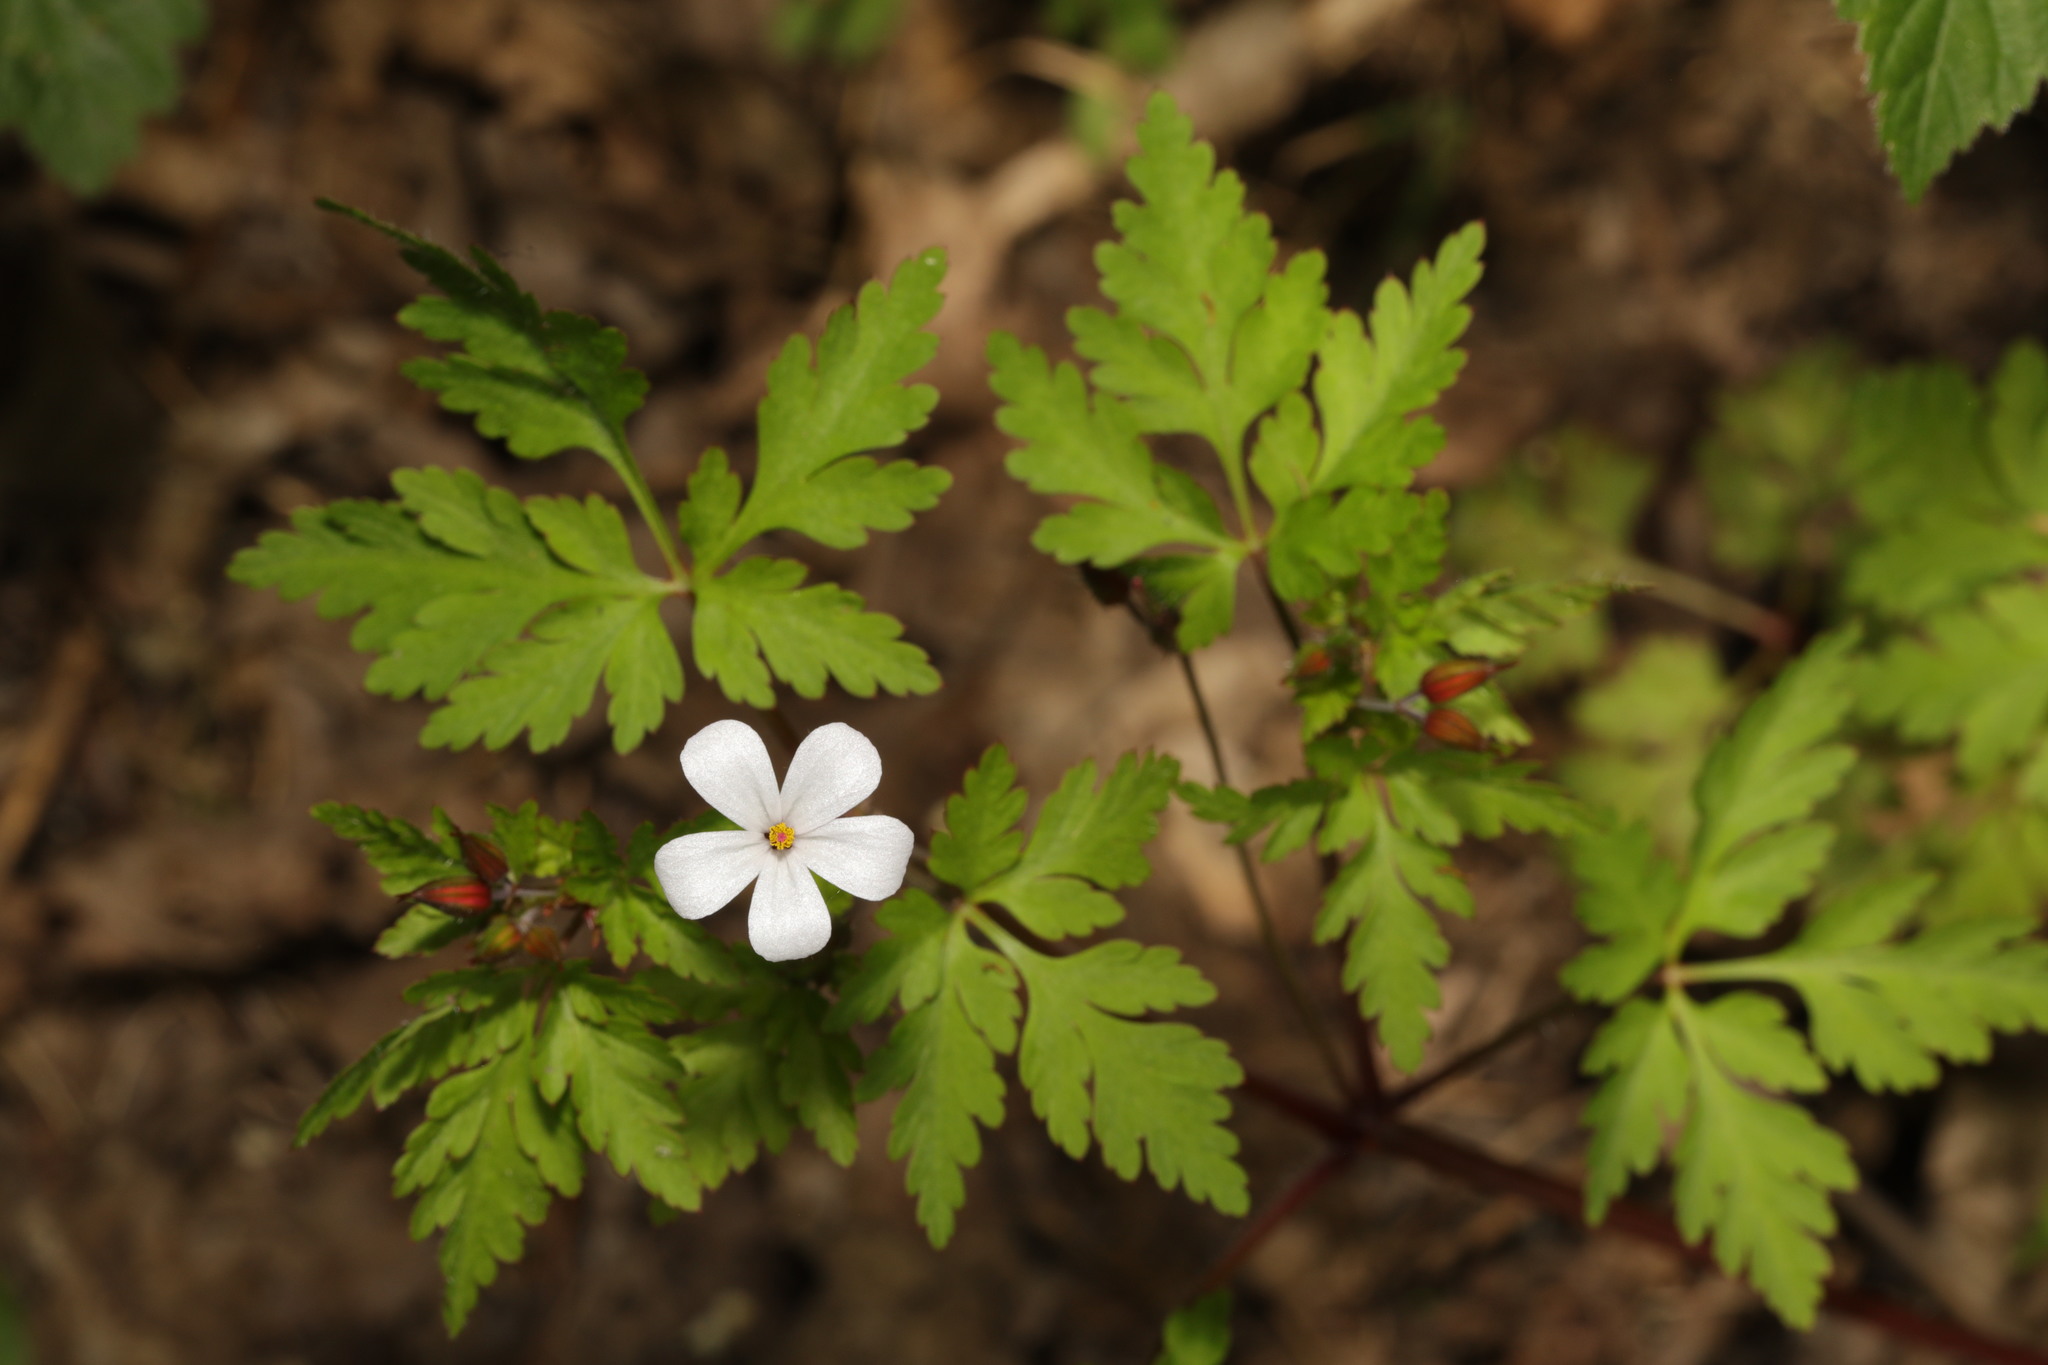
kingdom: Plantae
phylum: Tracheophyta
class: Magnoliopsida
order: Geraniales
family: Geraniaceae
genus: Geranium
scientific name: Geranium robertianum
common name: Herb-robert
